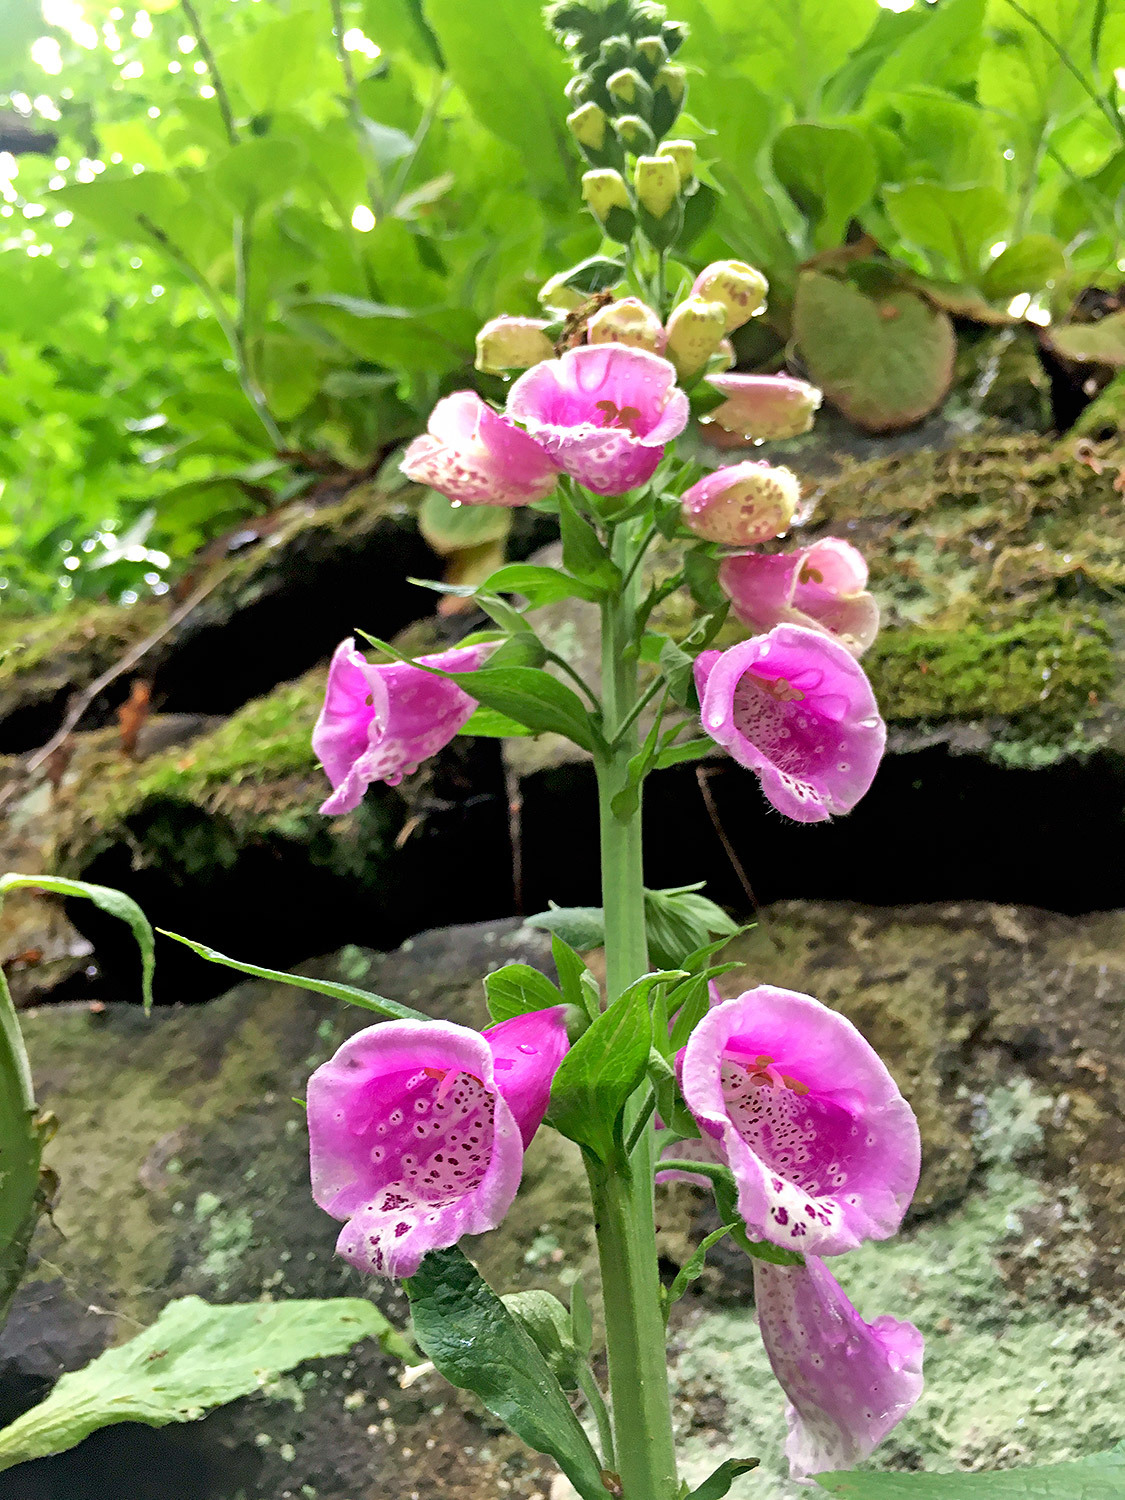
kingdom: Plantae
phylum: Tracheophyta
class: Magnoliopsida
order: Lamiales
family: Plantaginaceae
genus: Digitalis
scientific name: Digitalis purpurea
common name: Foxglove
